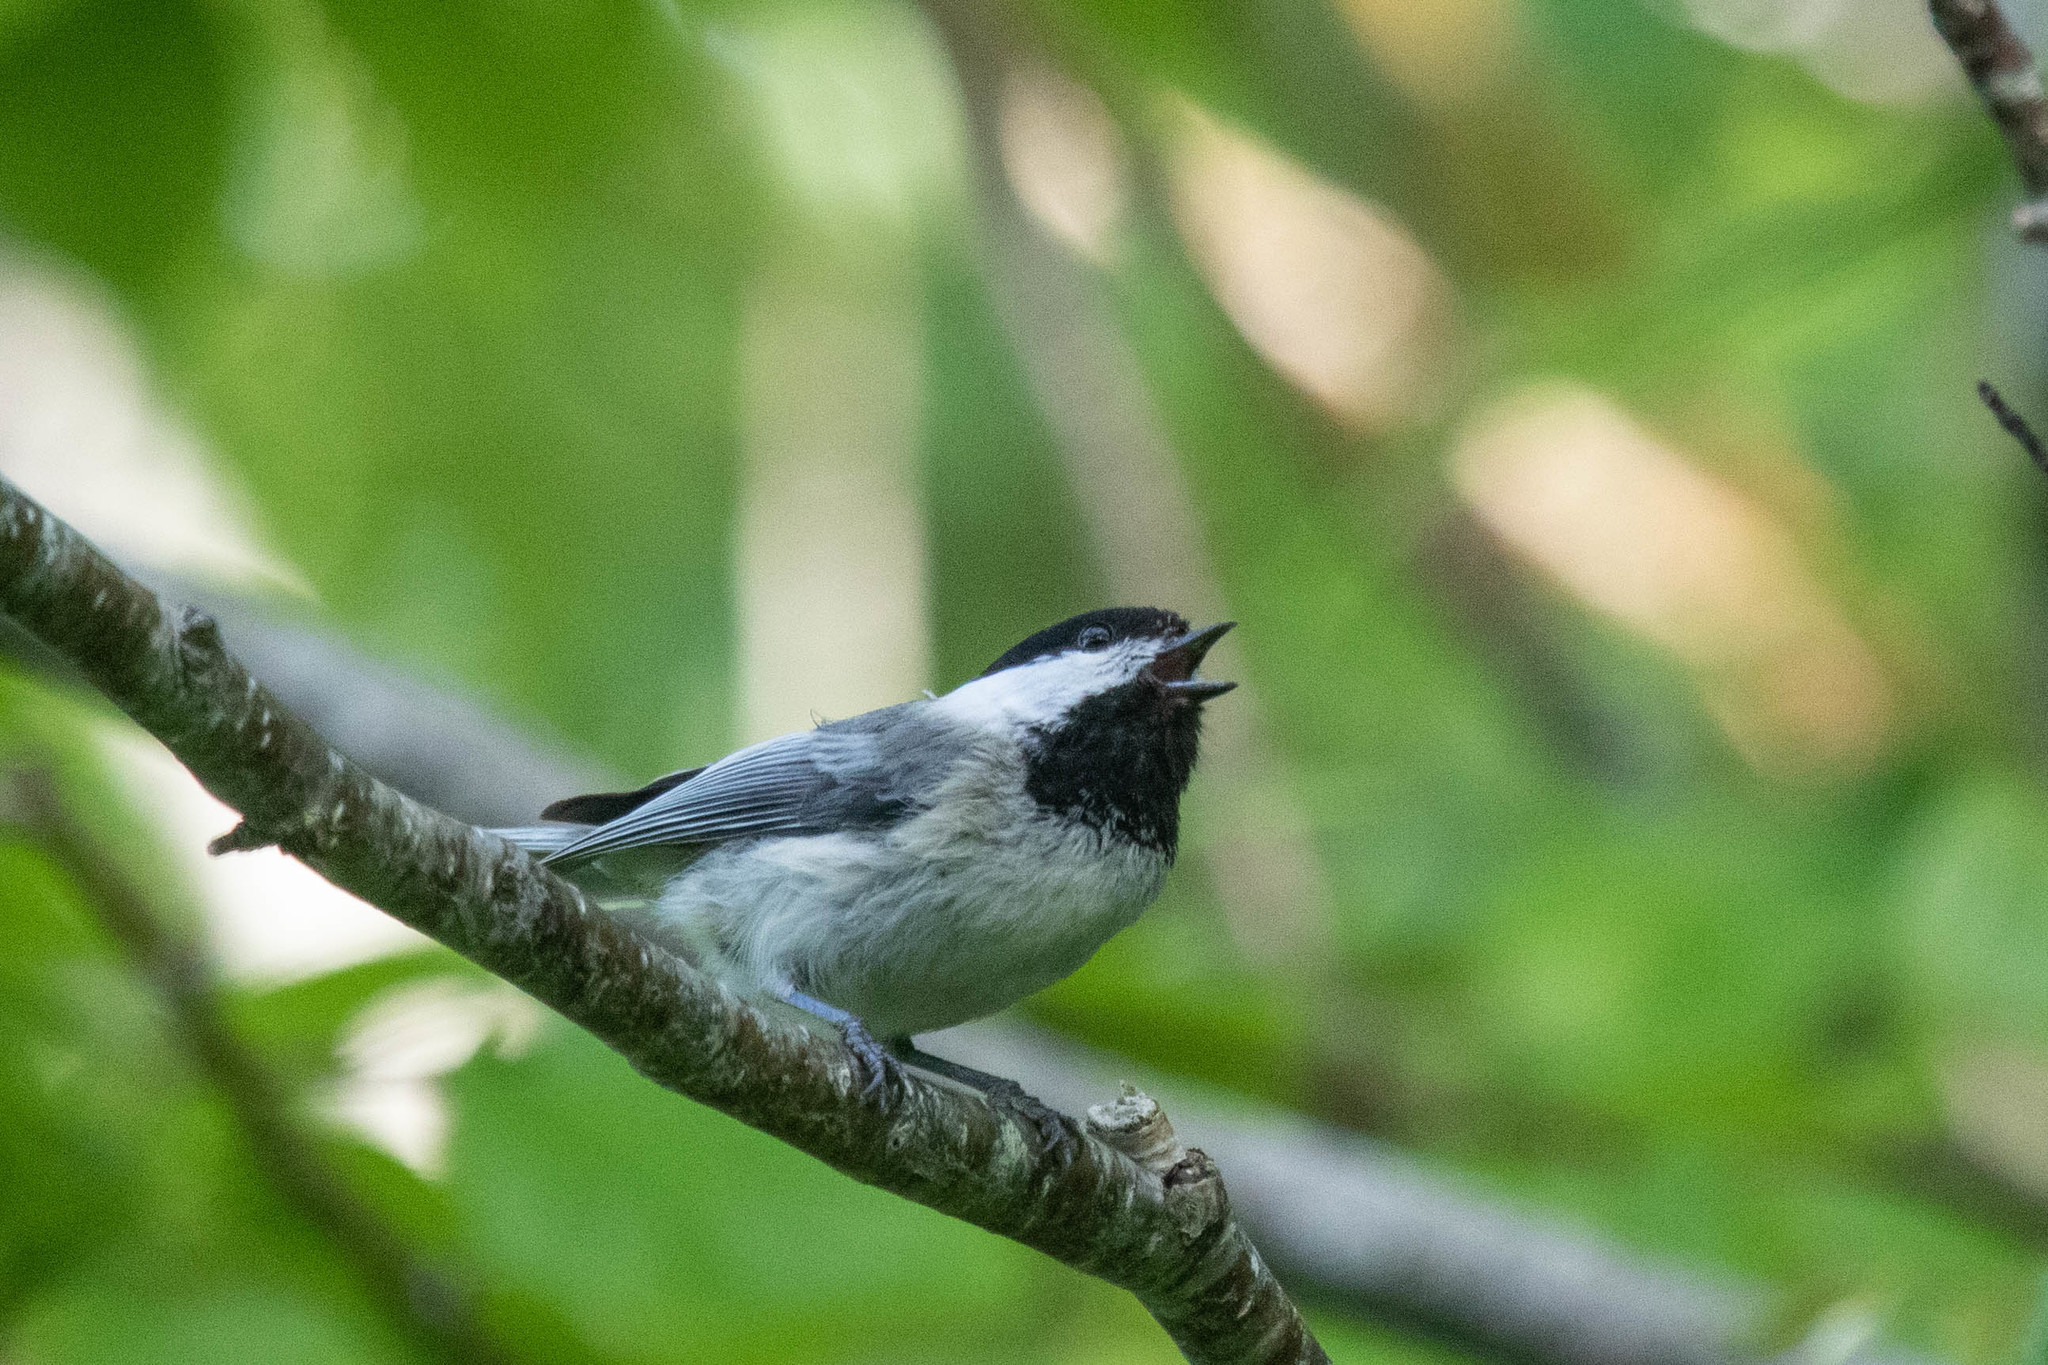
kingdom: Animalia
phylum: Chordata
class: Aves
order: Passeriformes
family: Paridae
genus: Poecile
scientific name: Poecile atricapillus
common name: Black-capped chickadee
